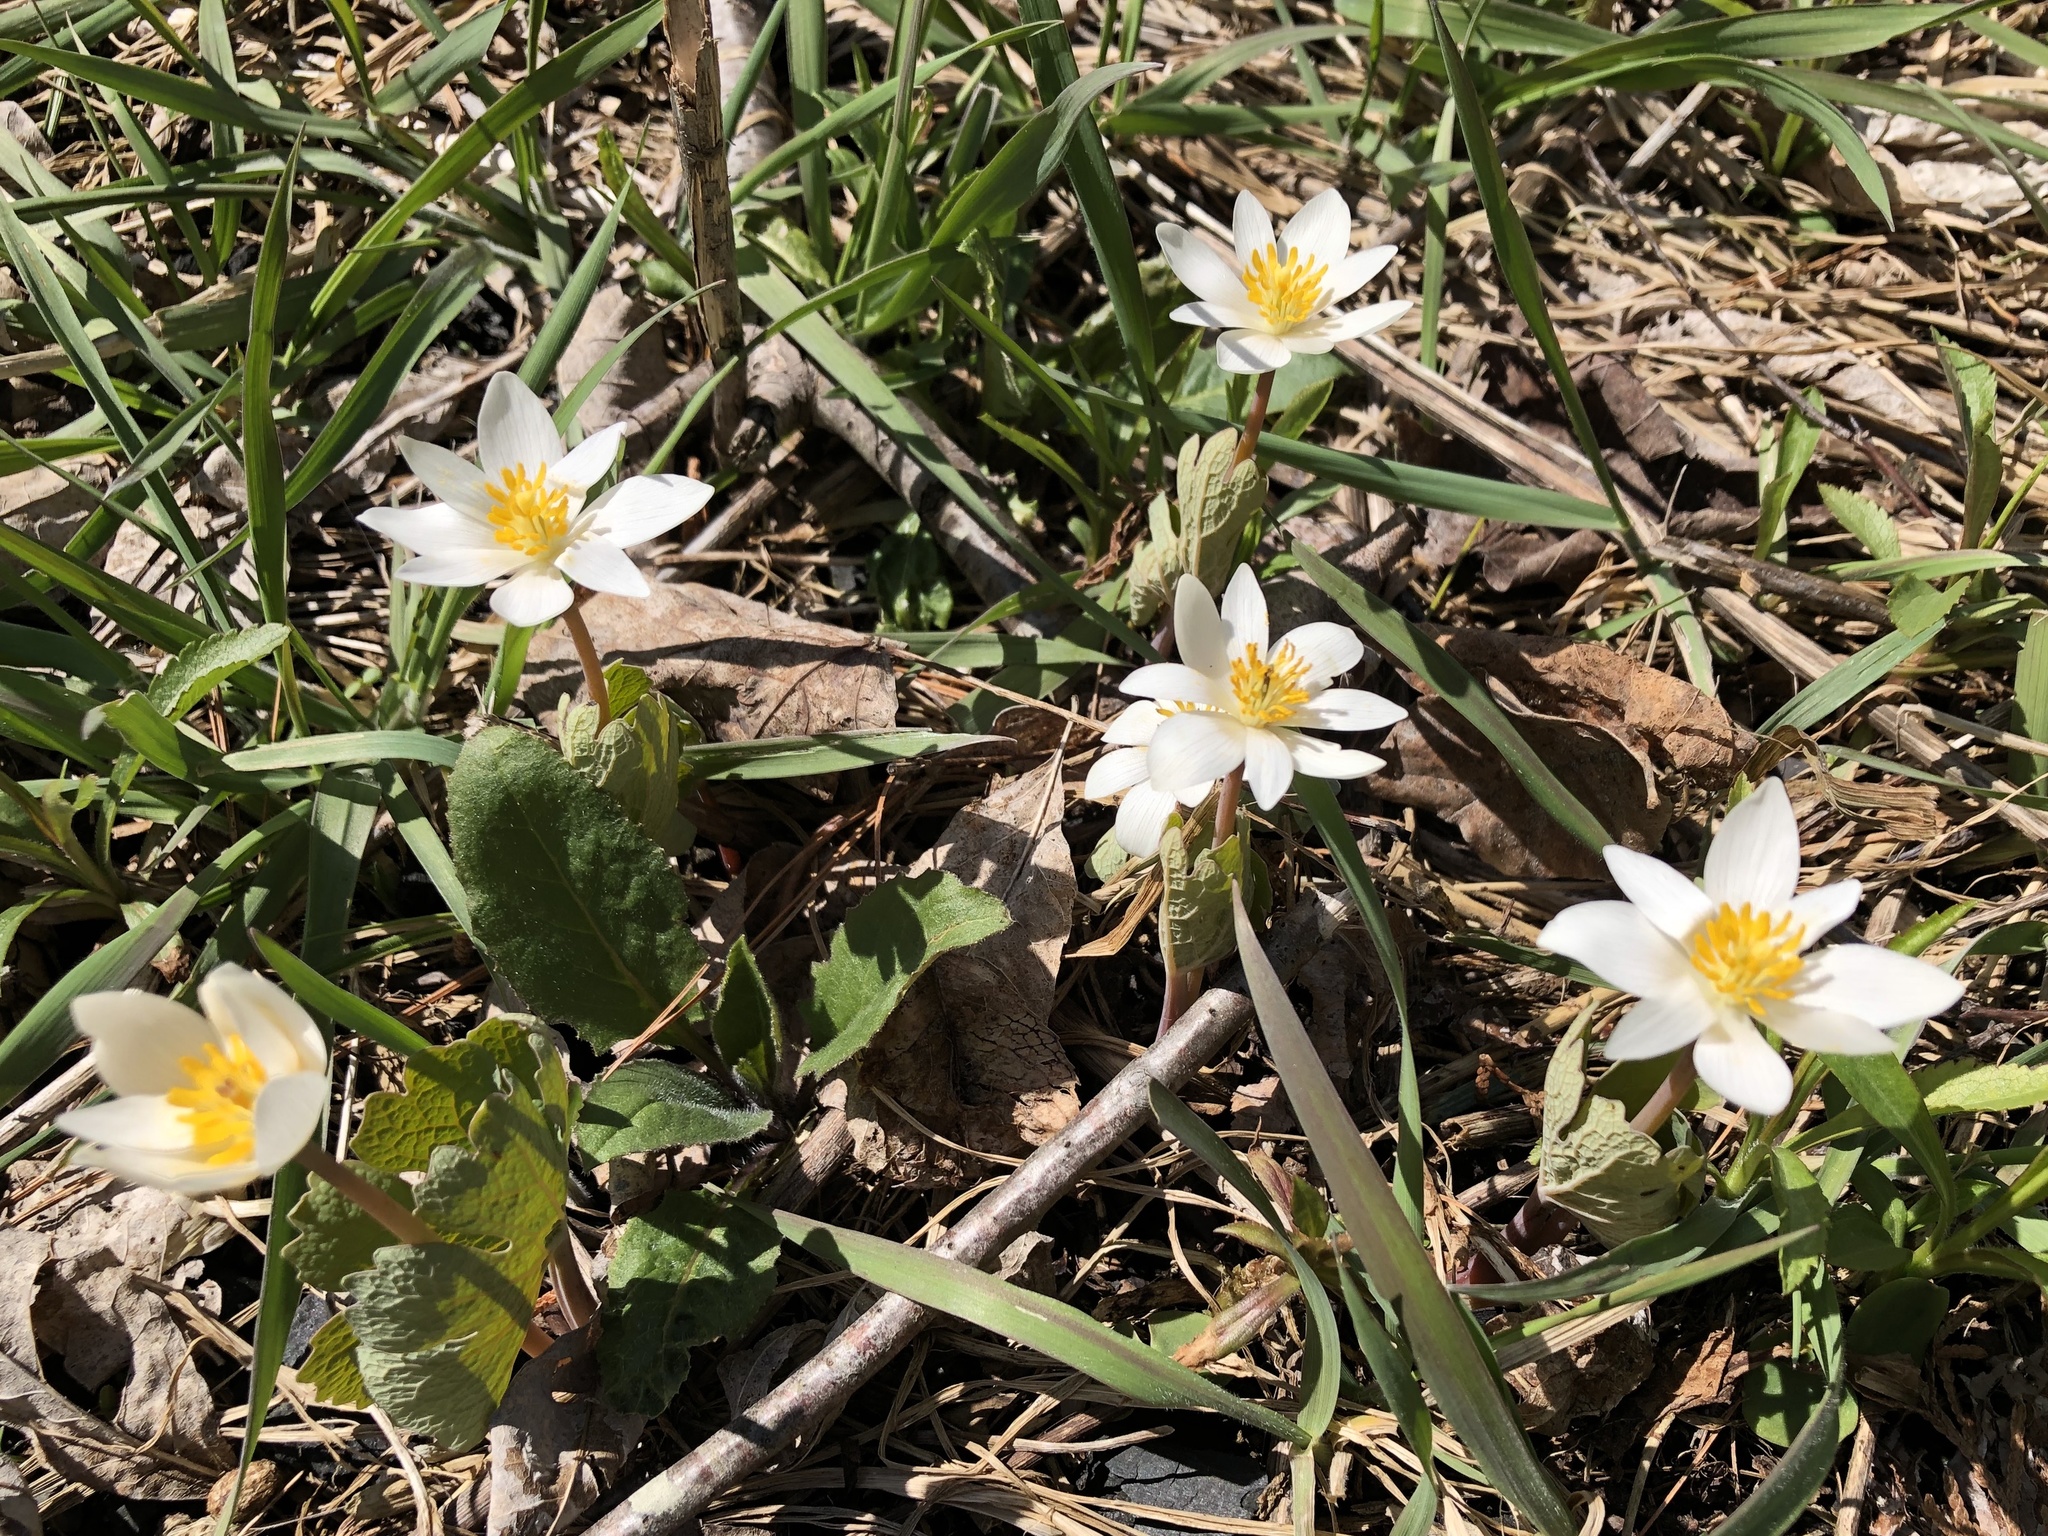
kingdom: Plantae
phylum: Tracheophyta
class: Magnoliopsida
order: Ranunculales
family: Papaveraceae
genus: Sanguinaria
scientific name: Sanguinaria canadensis
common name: Bloodroot
